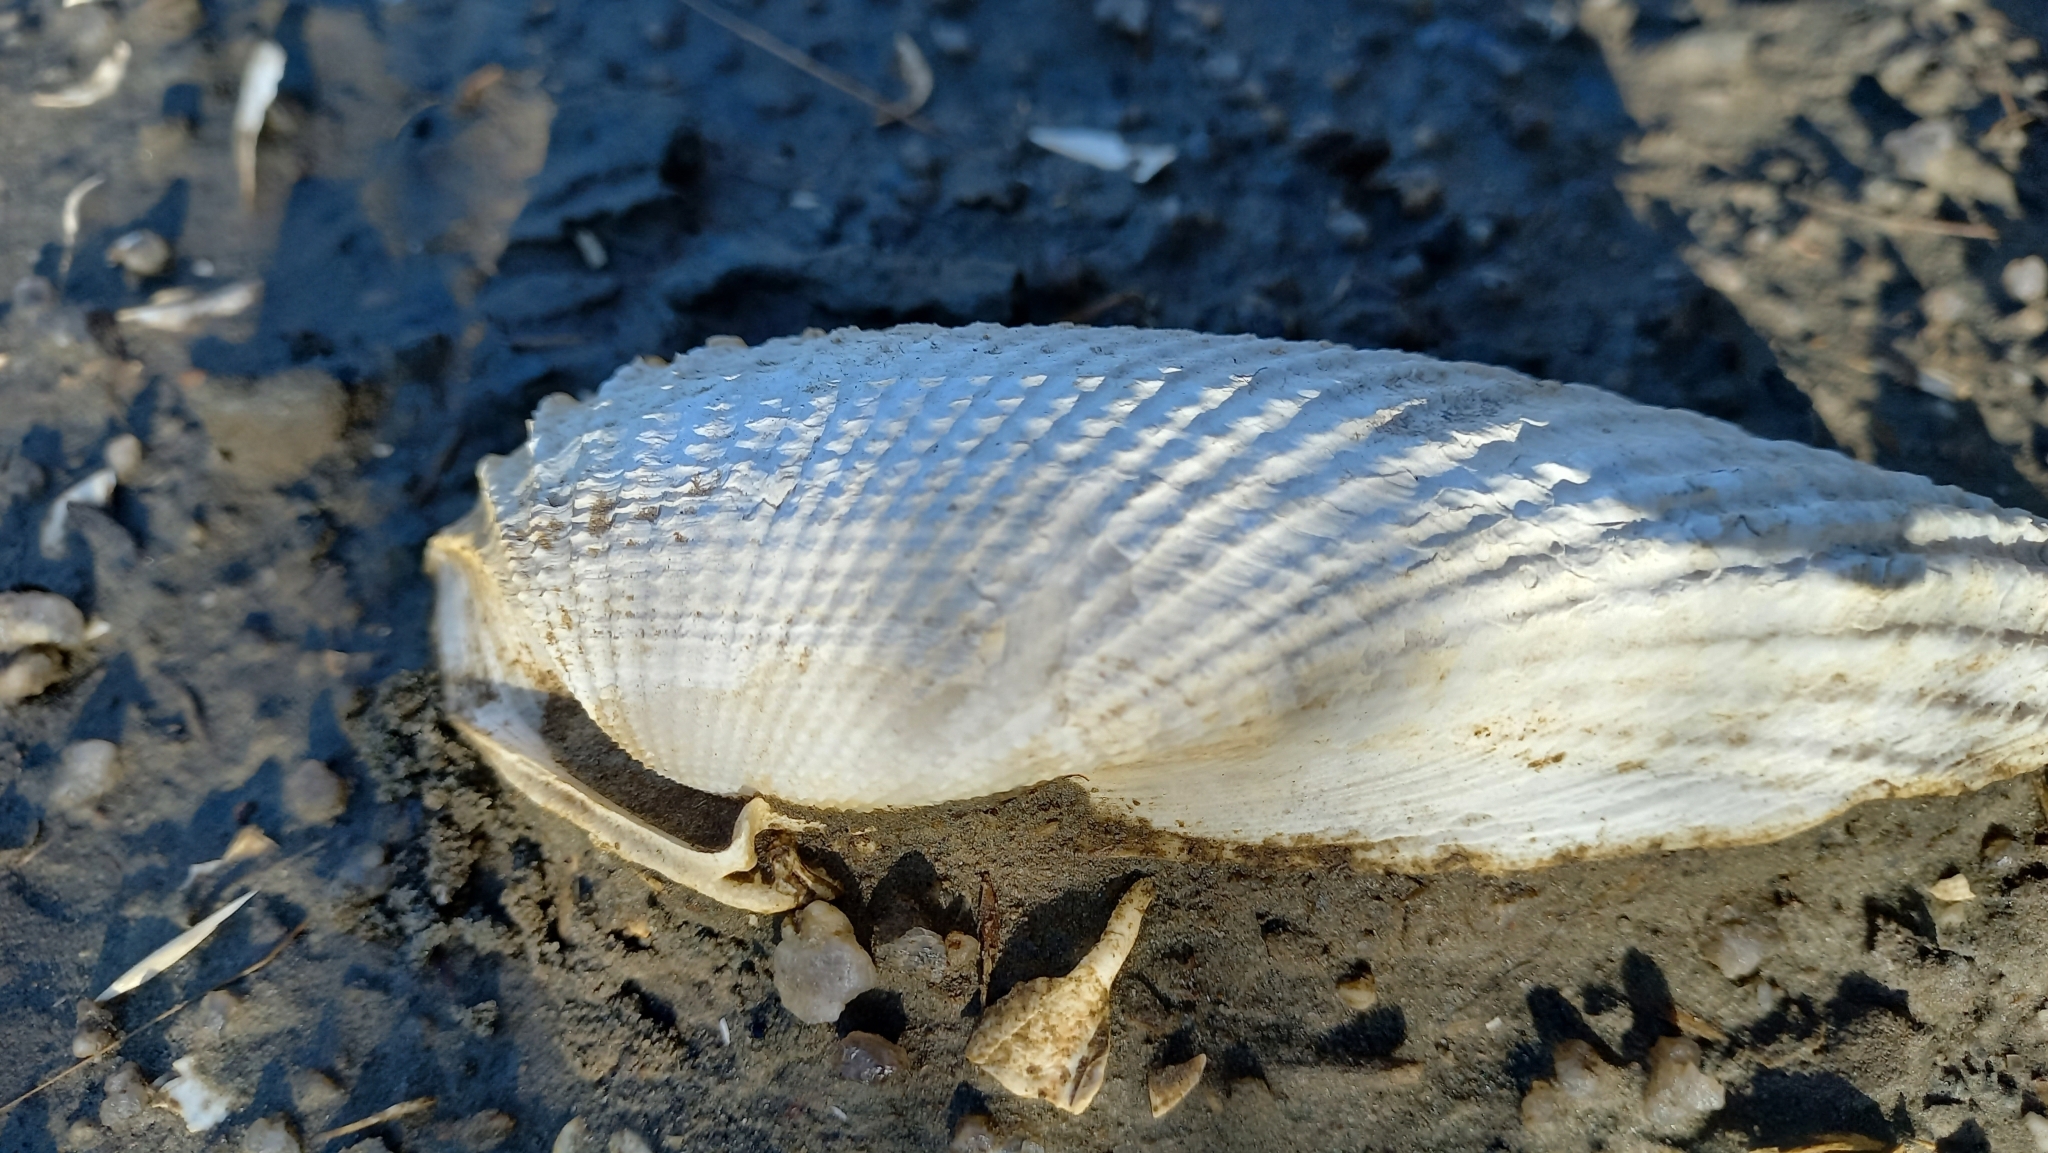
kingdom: Animalia
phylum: Mollusca
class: Bivalvia
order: Myida
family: Pholadidae
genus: Cyrtopleura
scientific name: Cyrtopleura costata
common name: Angel wing
